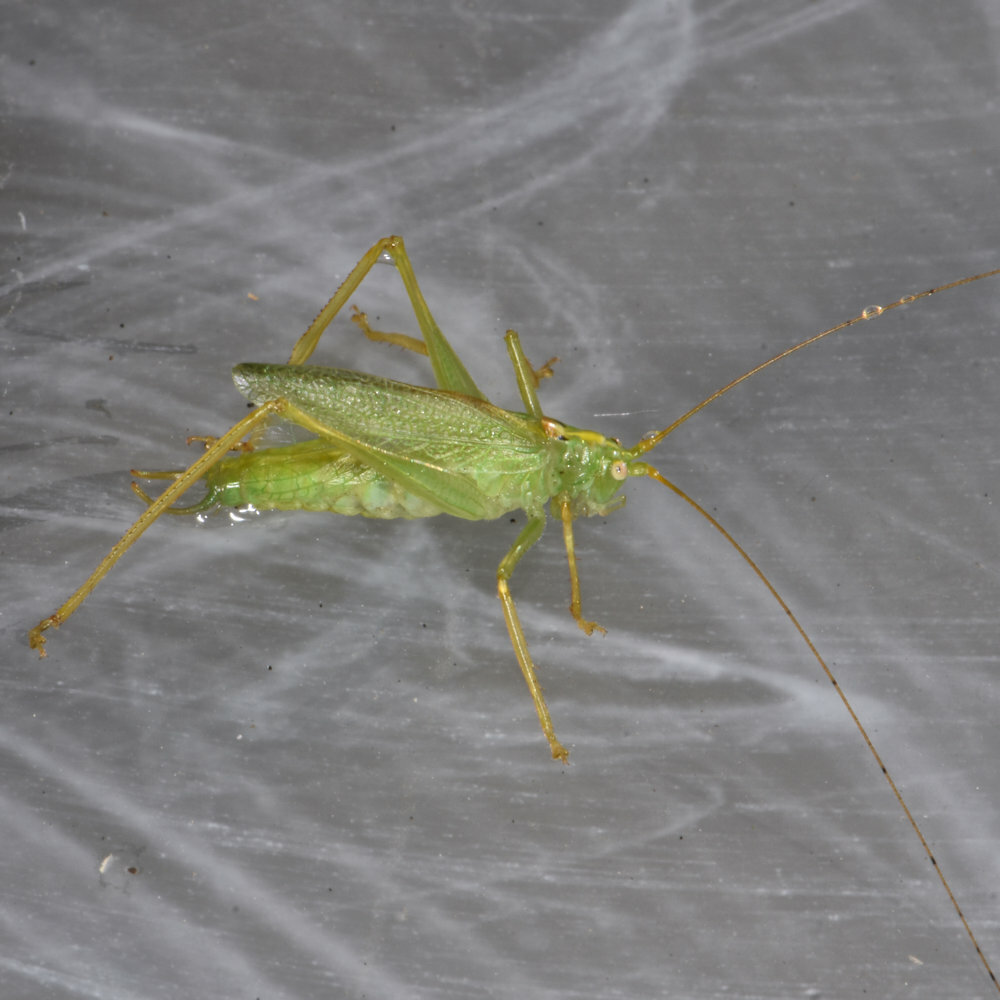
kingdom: Animalia
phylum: Arthropoda
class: Insecta
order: Orthoptera
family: Tettigoniidae
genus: Meconema
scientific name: Meconema thalassinum
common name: Oak bush-cricket
